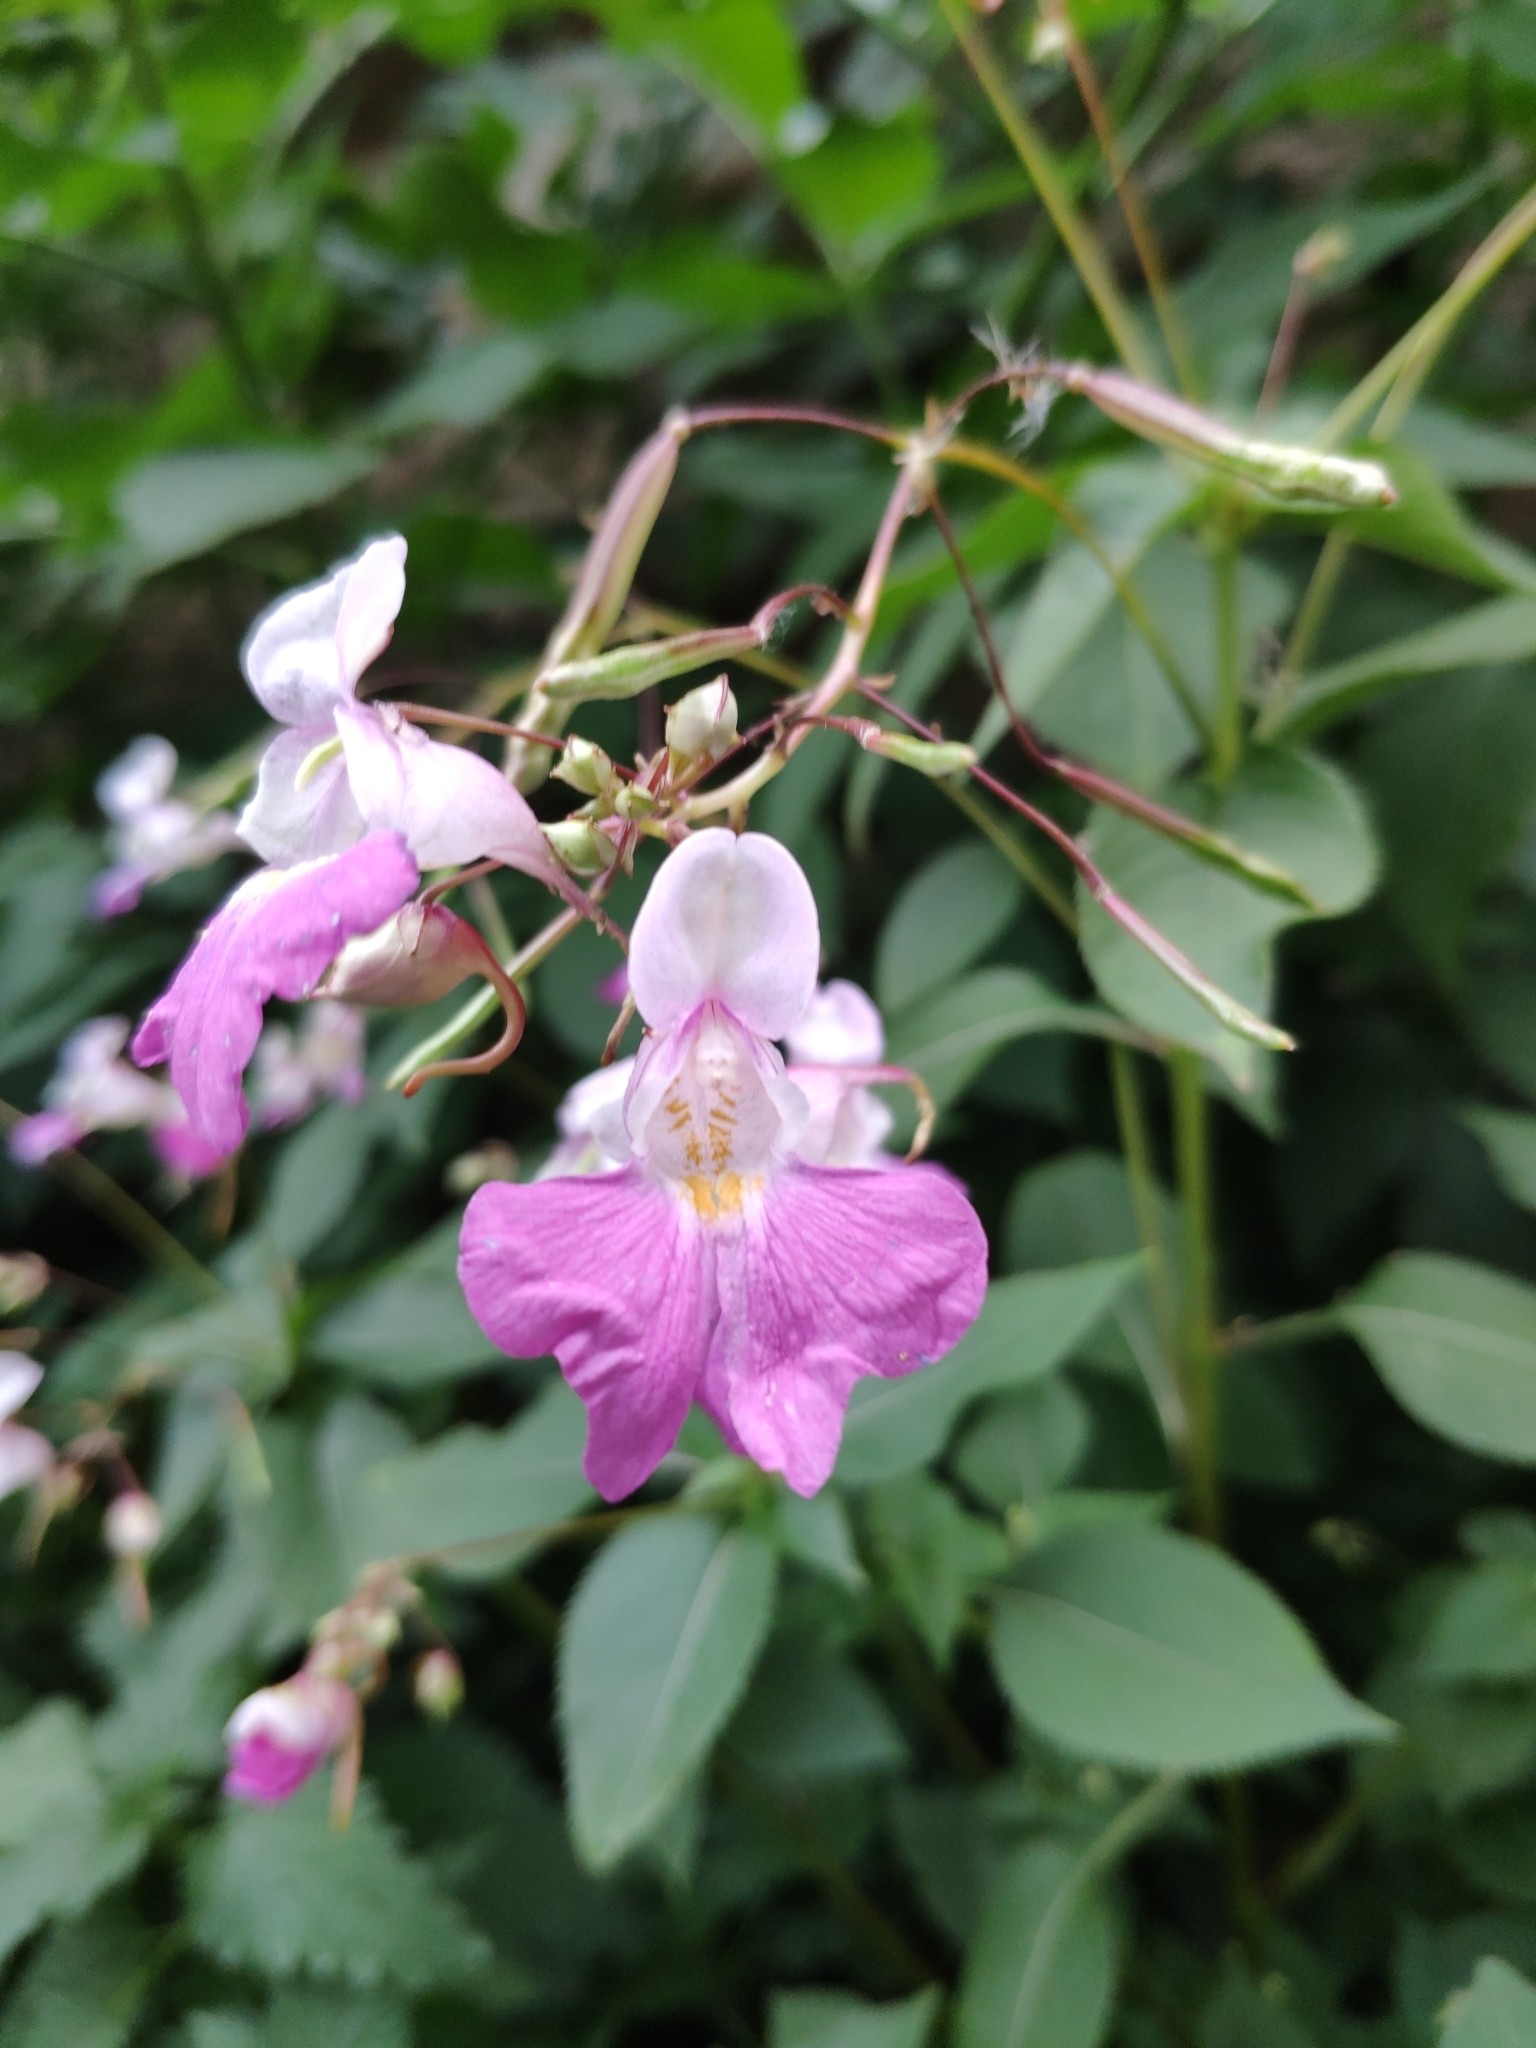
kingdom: Plantae
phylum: Tracheophyta
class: Magnoliopsida
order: Ericales
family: Balsaminaceae
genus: Impatiens
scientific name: Impatiens balfourii
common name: Balfour's touch-me-not
